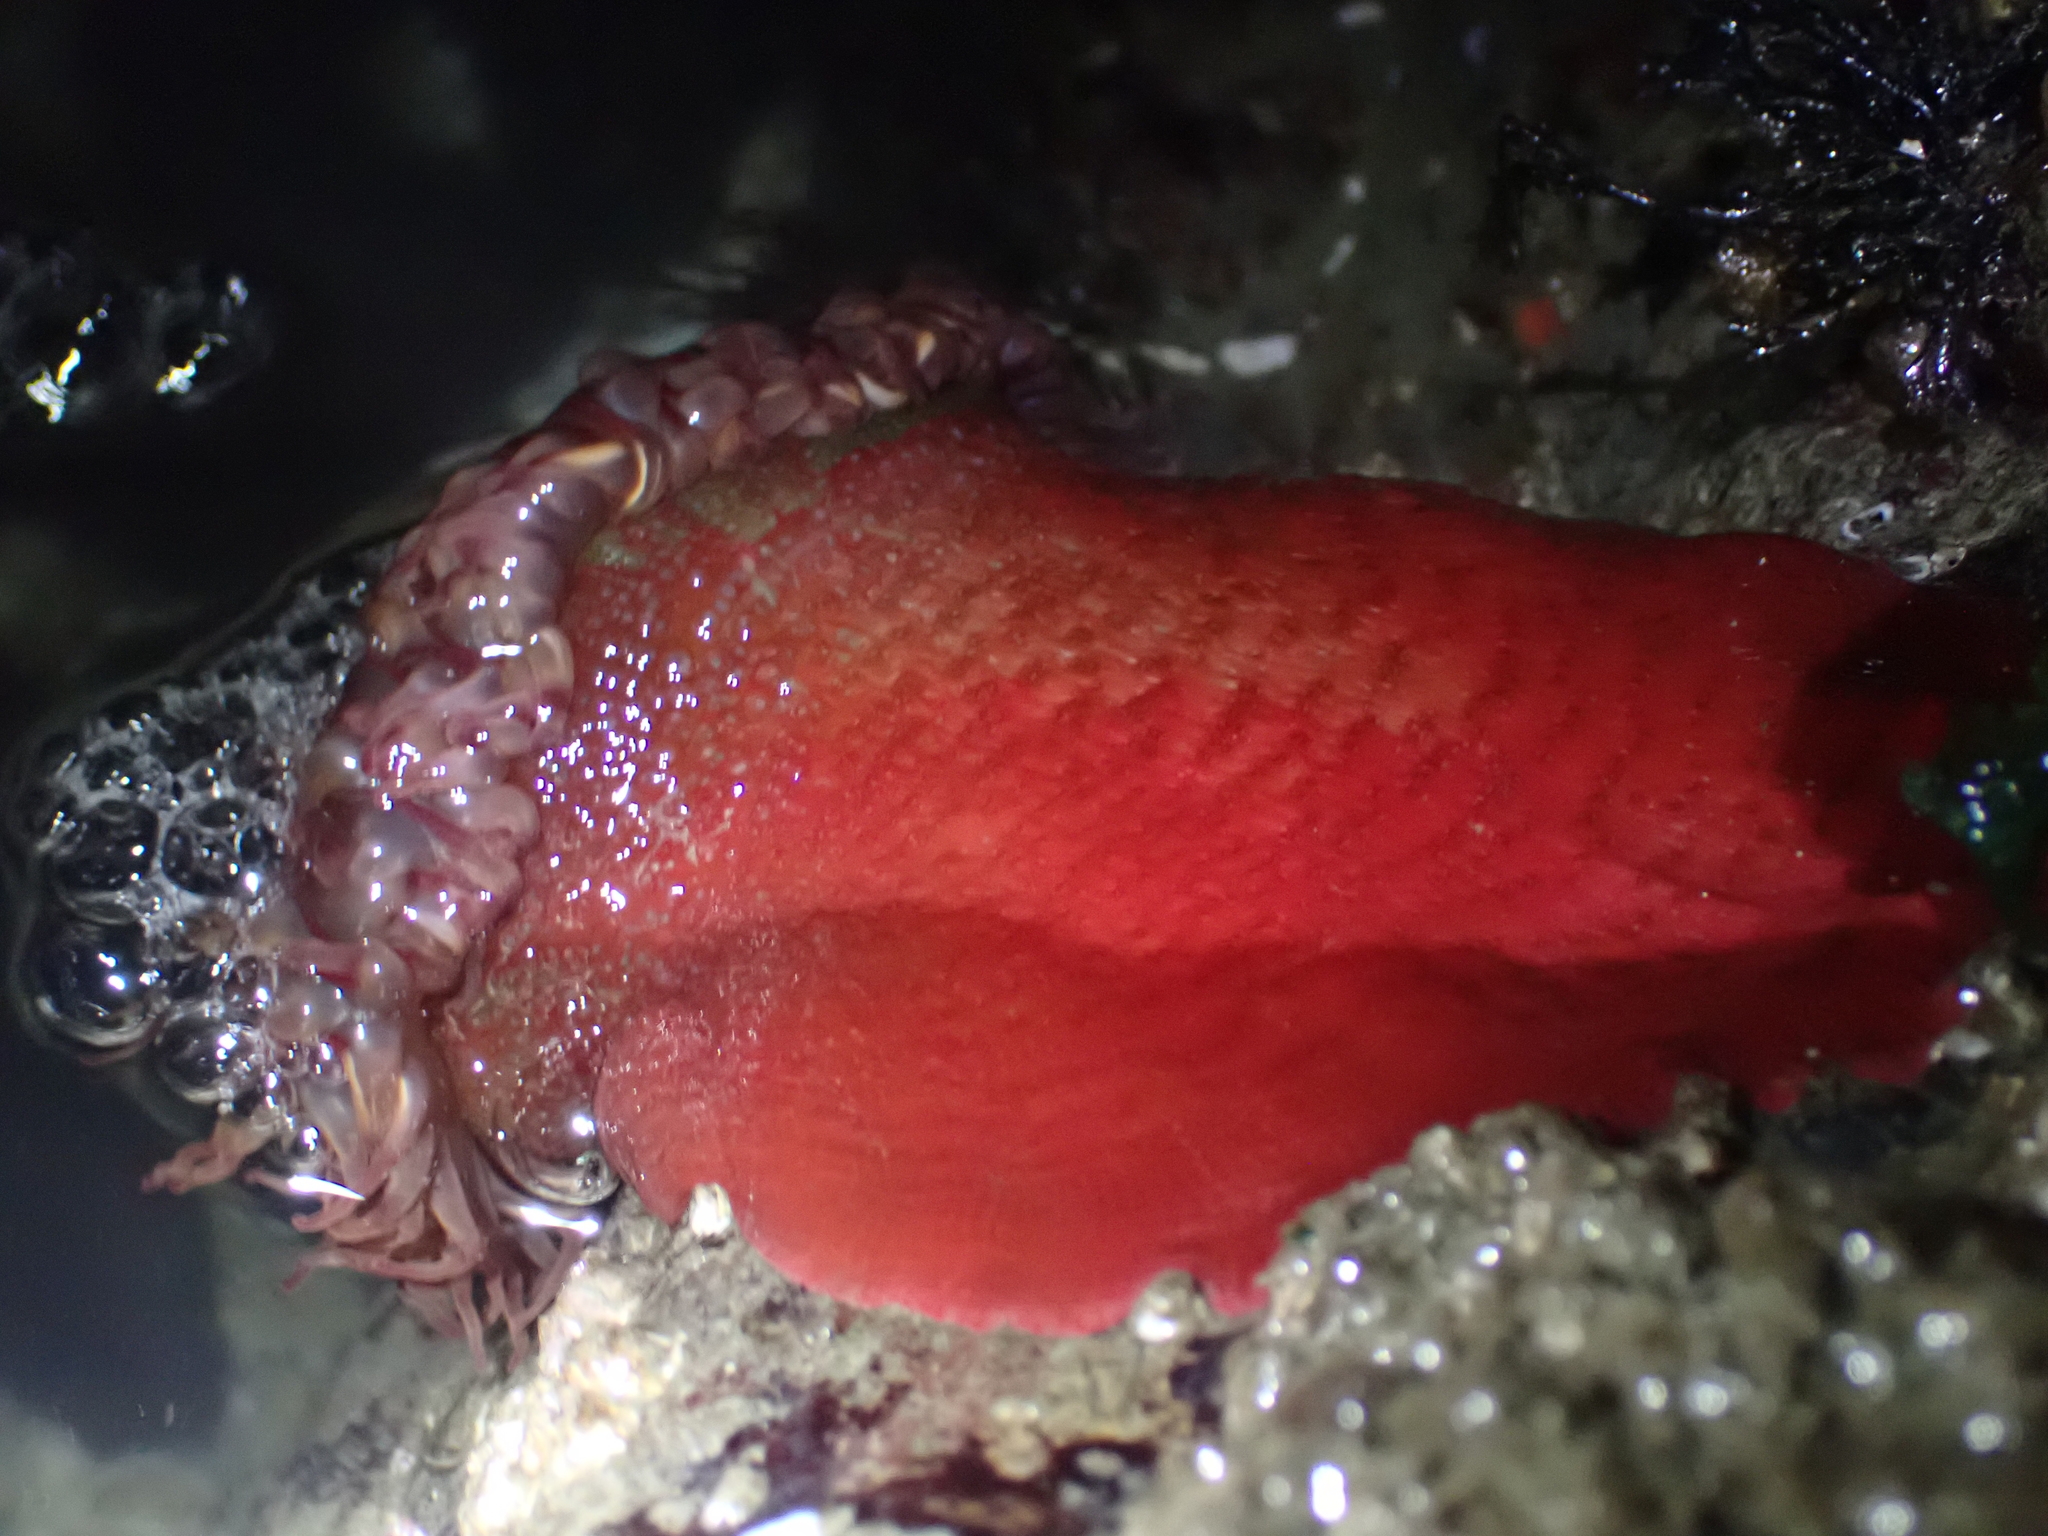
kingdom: Animalia
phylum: Cnidaria
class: Anthozoa
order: Actiniaria
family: Actiniidae
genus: Urticina
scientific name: Urticina grebelnyi
